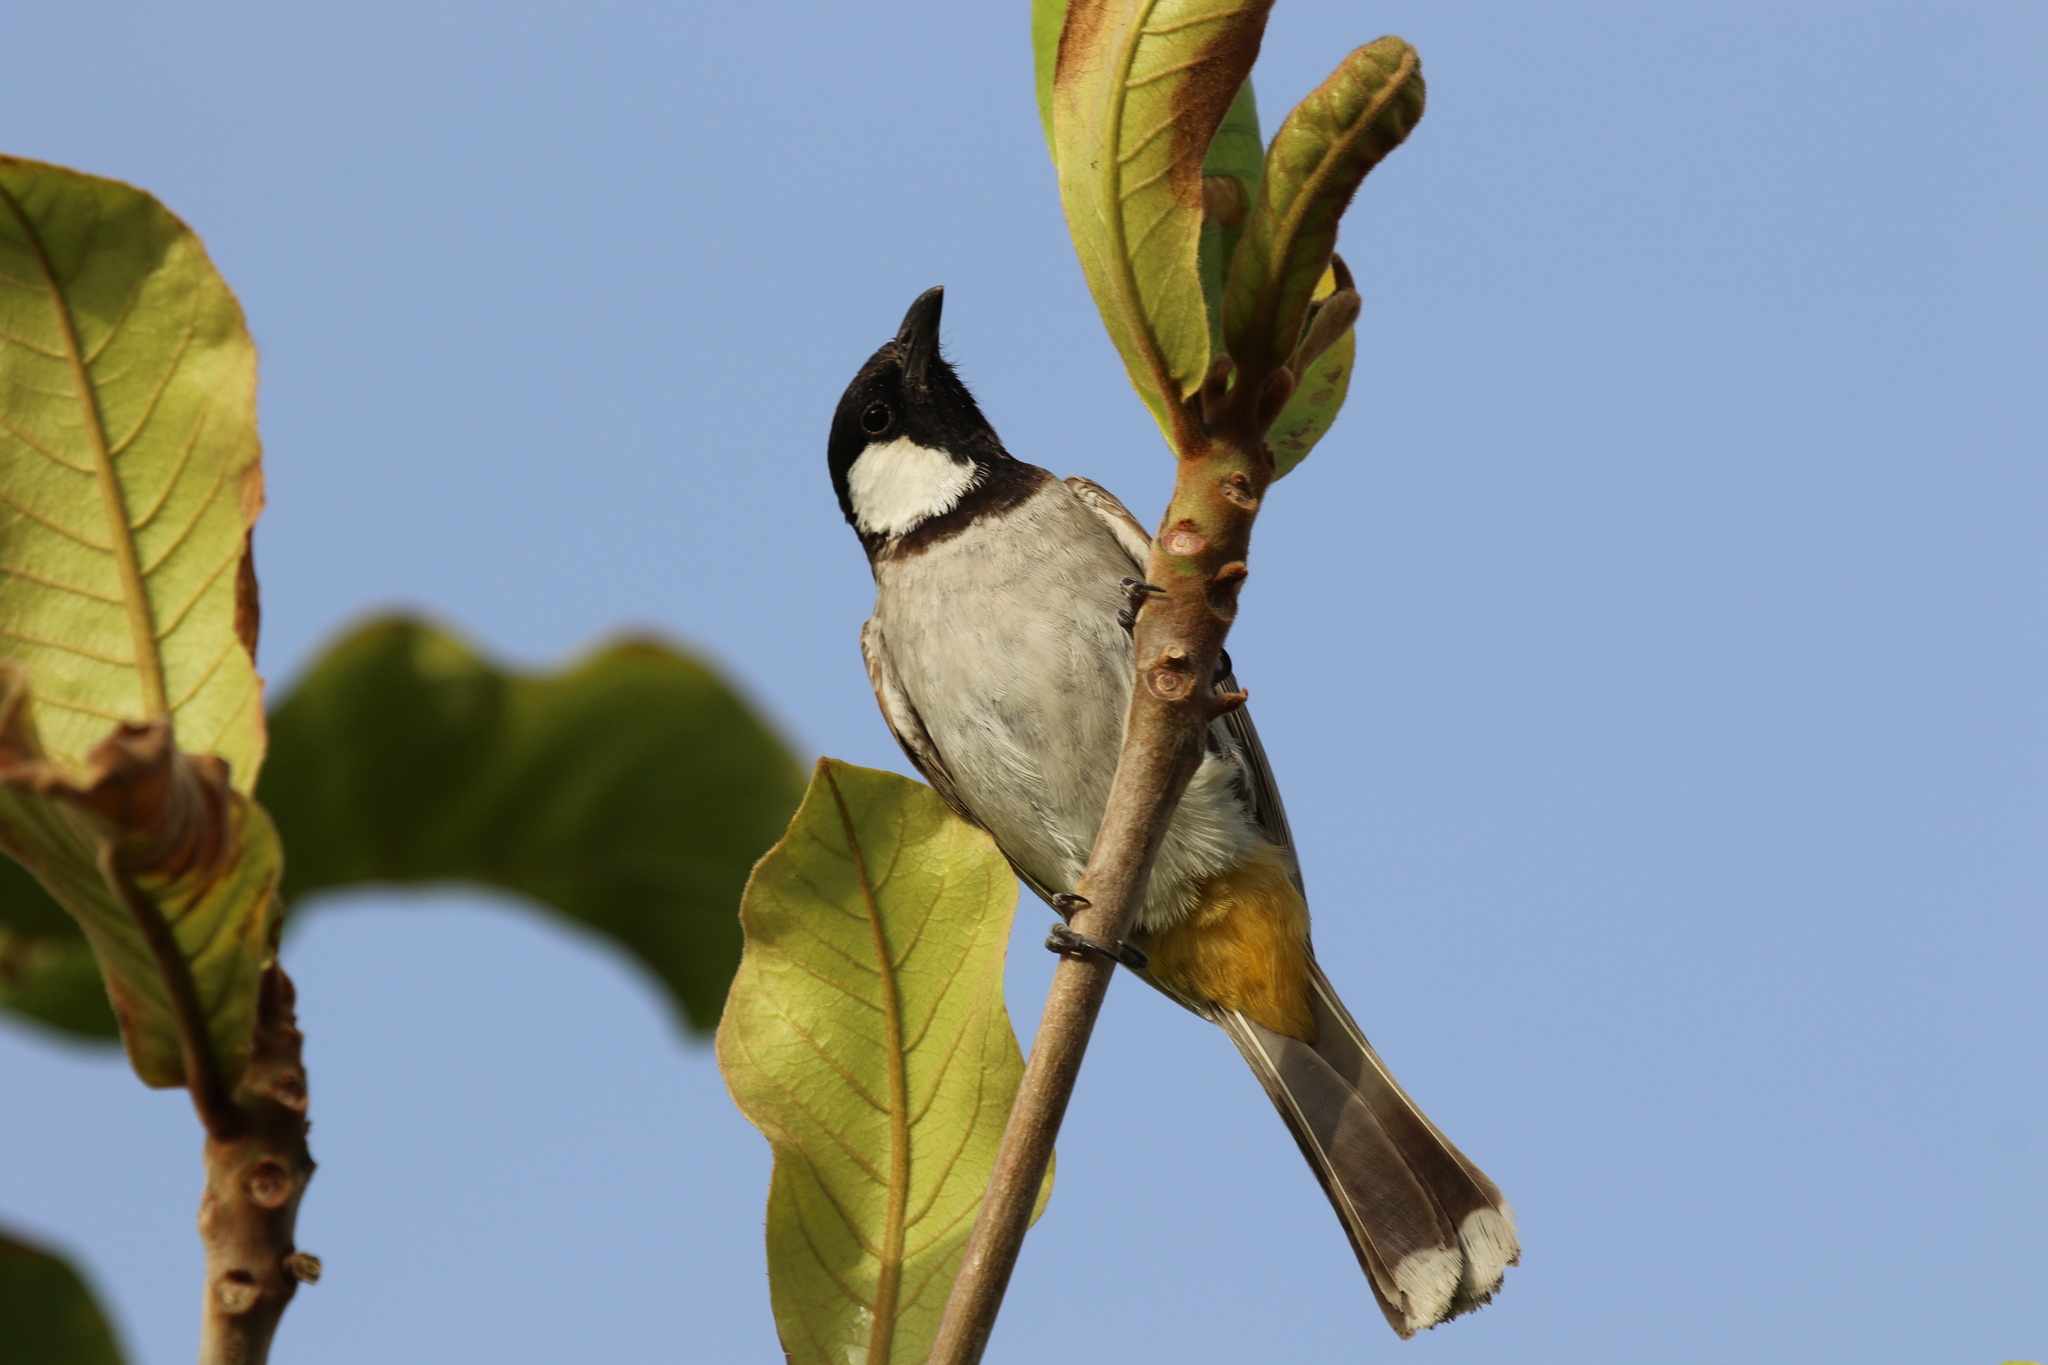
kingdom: Animalia
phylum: Chordata
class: Aves
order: Passeriformes
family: Pycnonotidae
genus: Pycnonotus
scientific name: Pycnonotus leucotis
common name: White-eared bulbul
